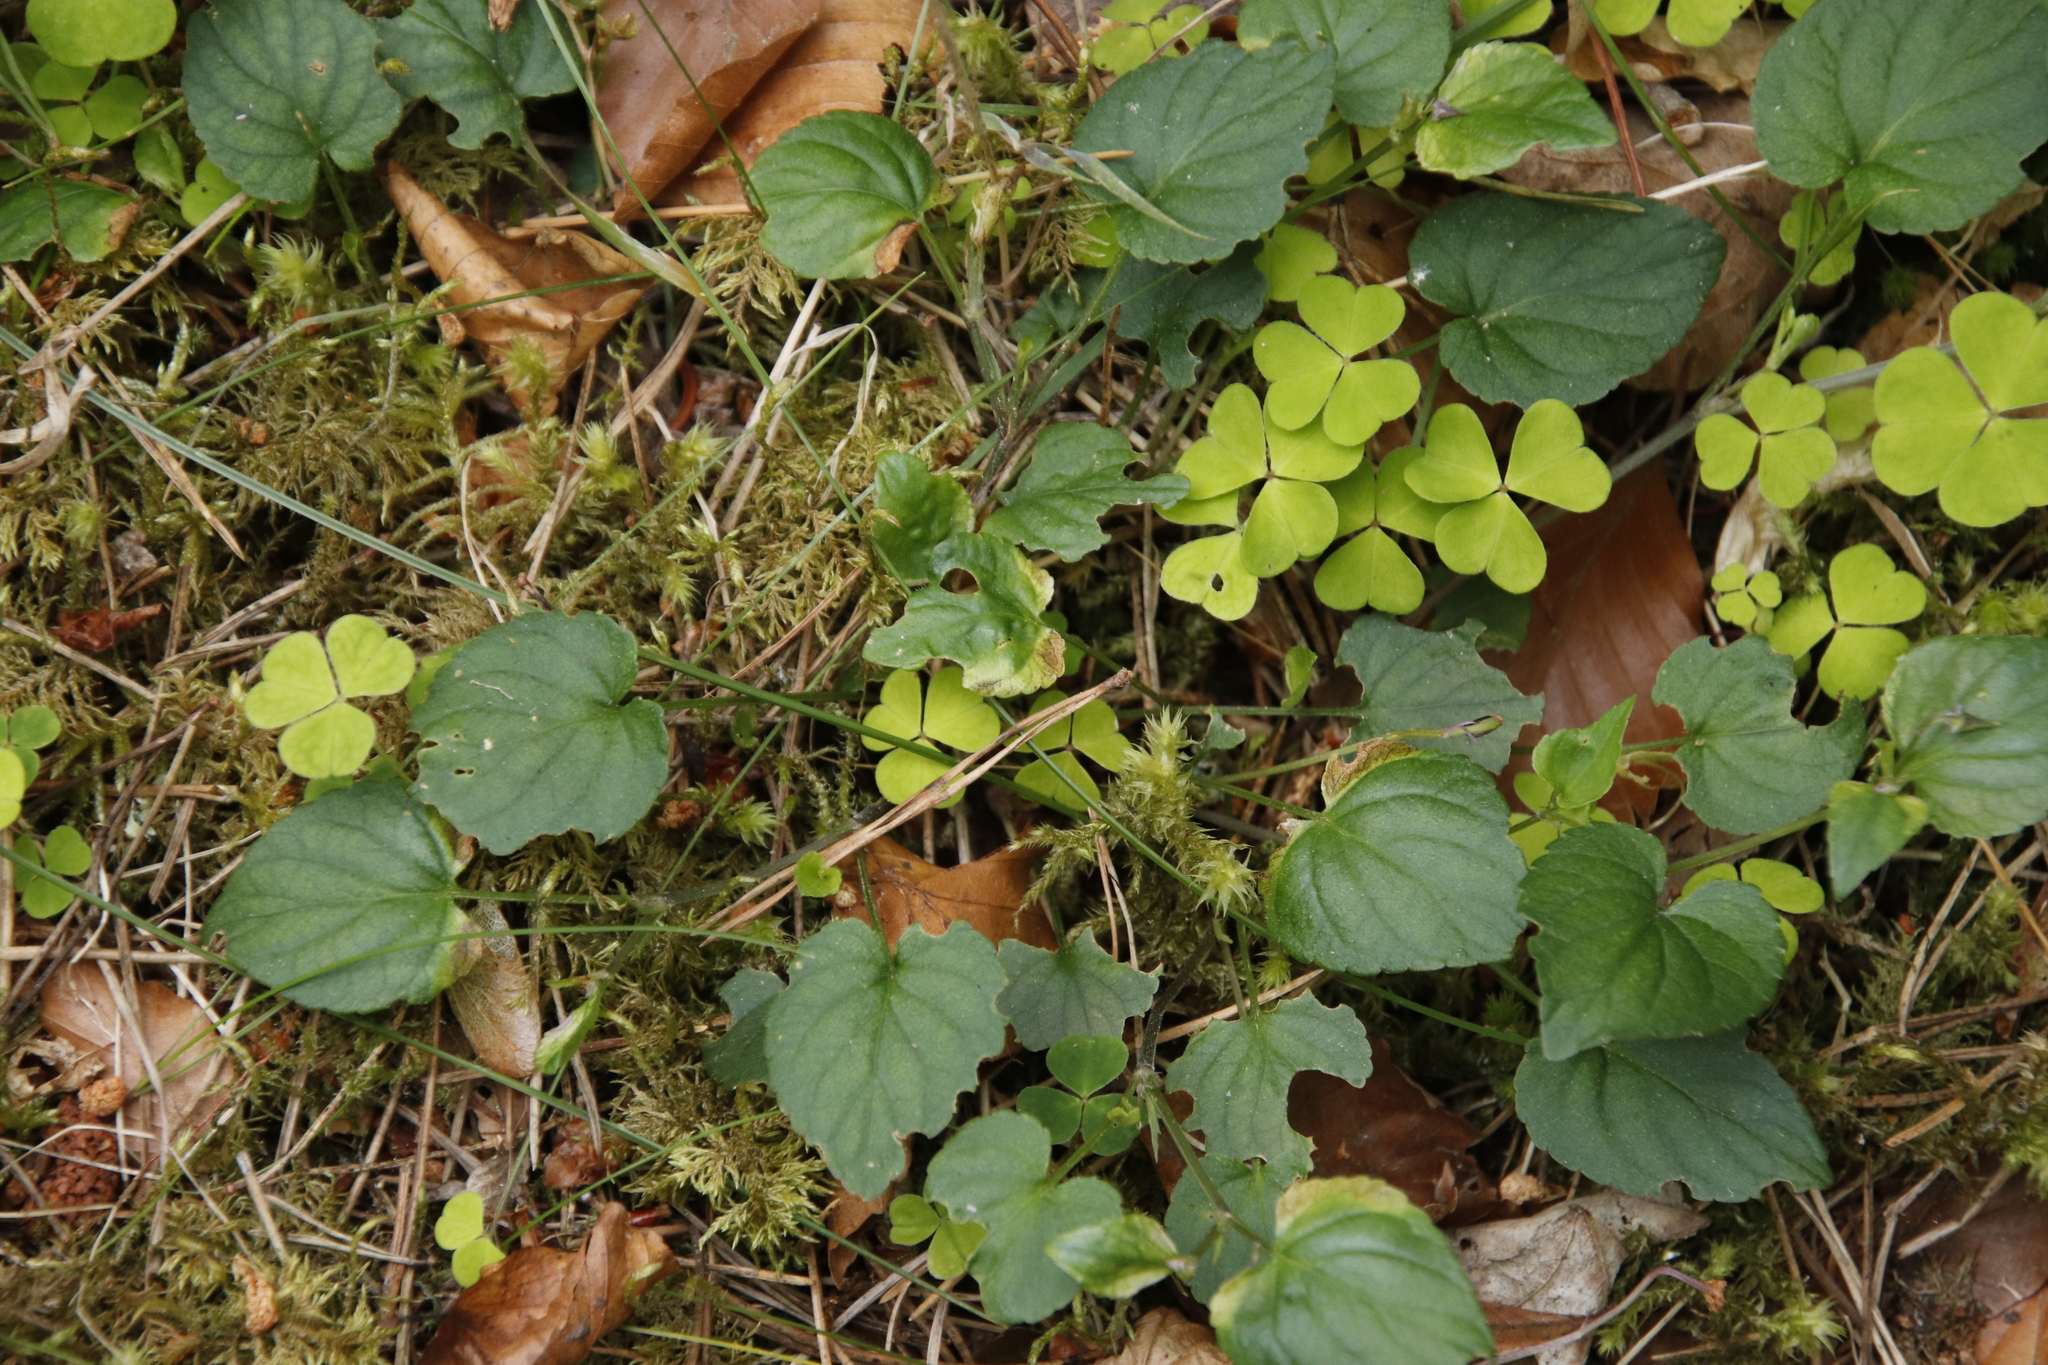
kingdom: Plantae
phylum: Tracheophyta
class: Magnoliopsida
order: Oxalidales
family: Oxalidaceae
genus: Oxalis
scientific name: Oxalis acetosella
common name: Wood-sorrel
